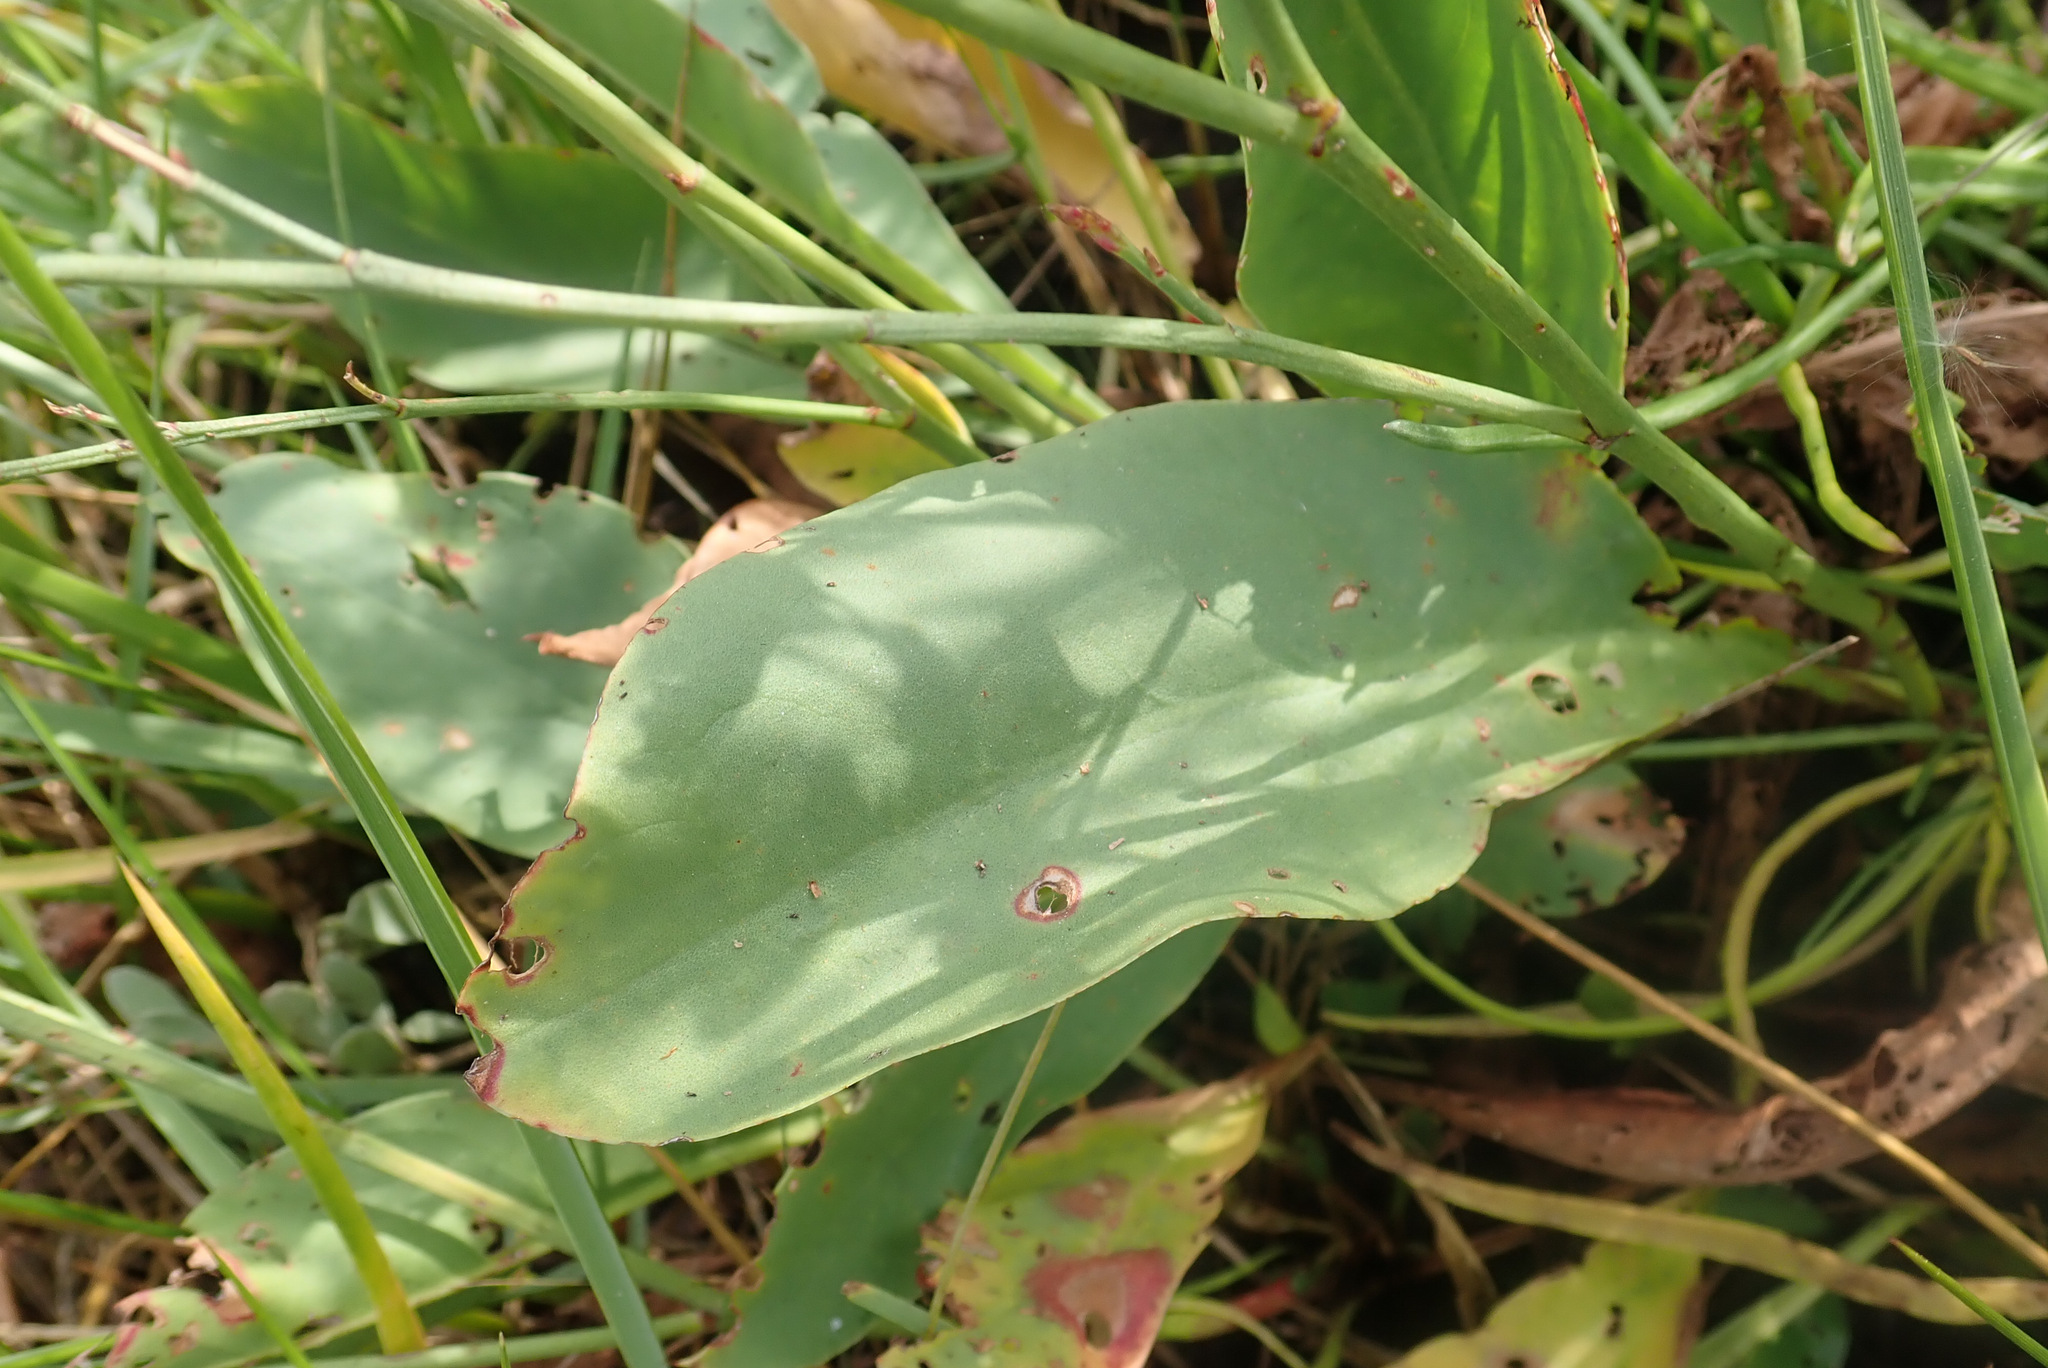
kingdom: Plantae
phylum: Tracheophyta
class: Magnoliopsida
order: Caryophyllales
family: Plumbaginaceae
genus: Limonium
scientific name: Limonium vulgare
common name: Common sea-lavender
